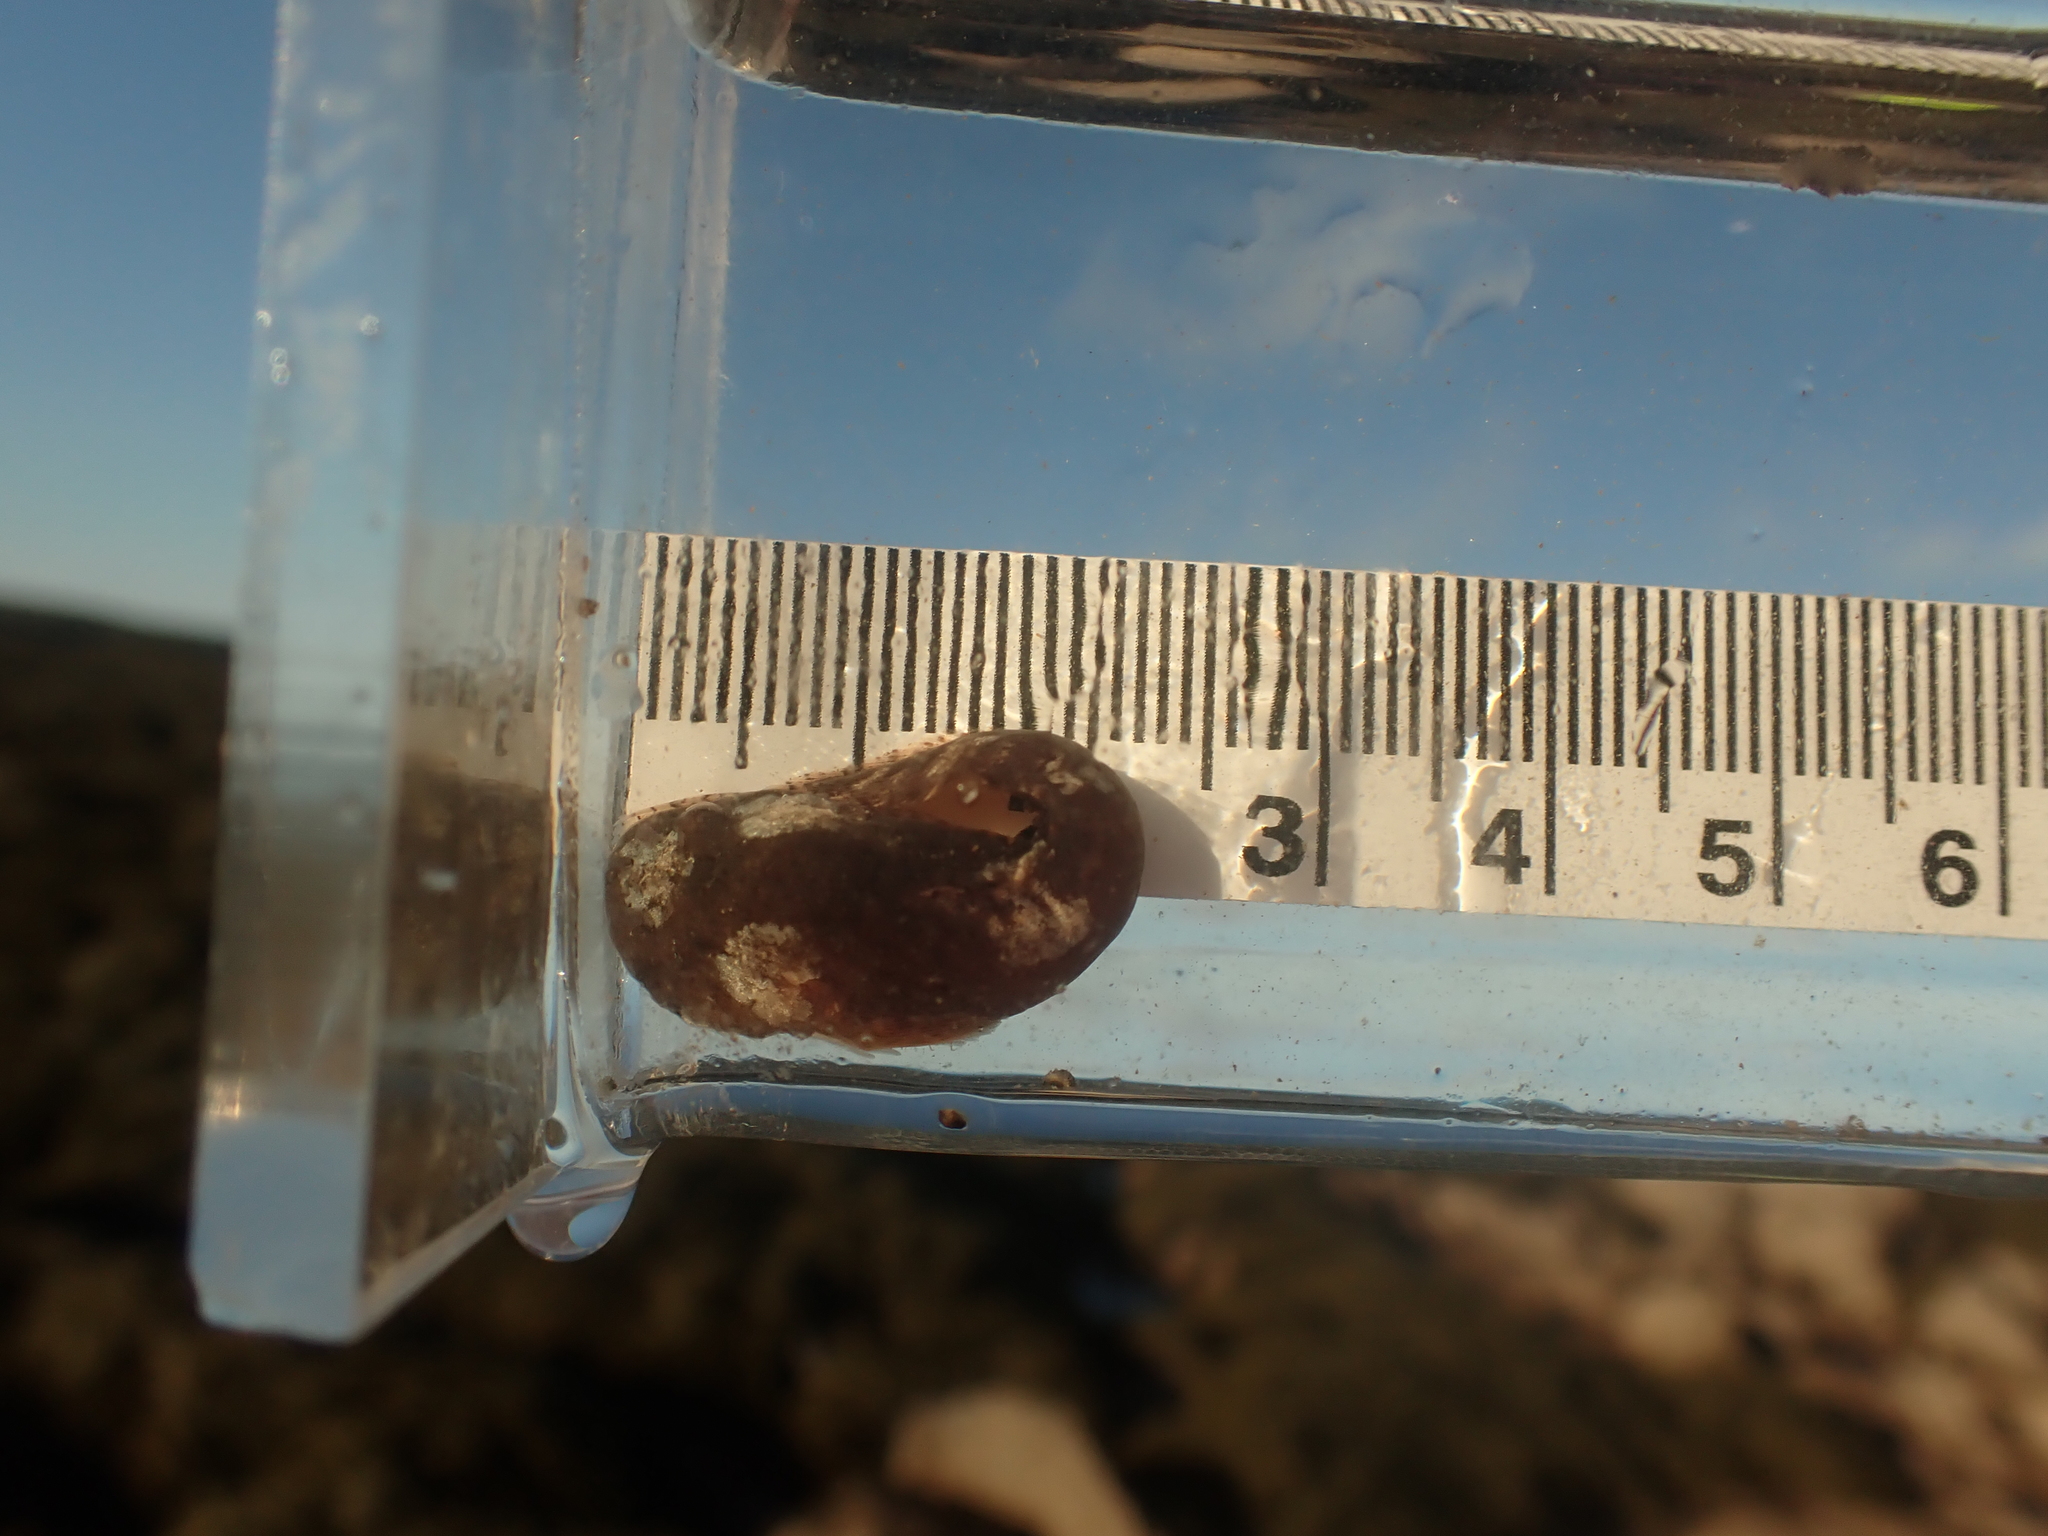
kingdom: Animalia
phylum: Chordata
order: Scorpaeniformes
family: Liparidae
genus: Liparis
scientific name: Liparis atlanticus
